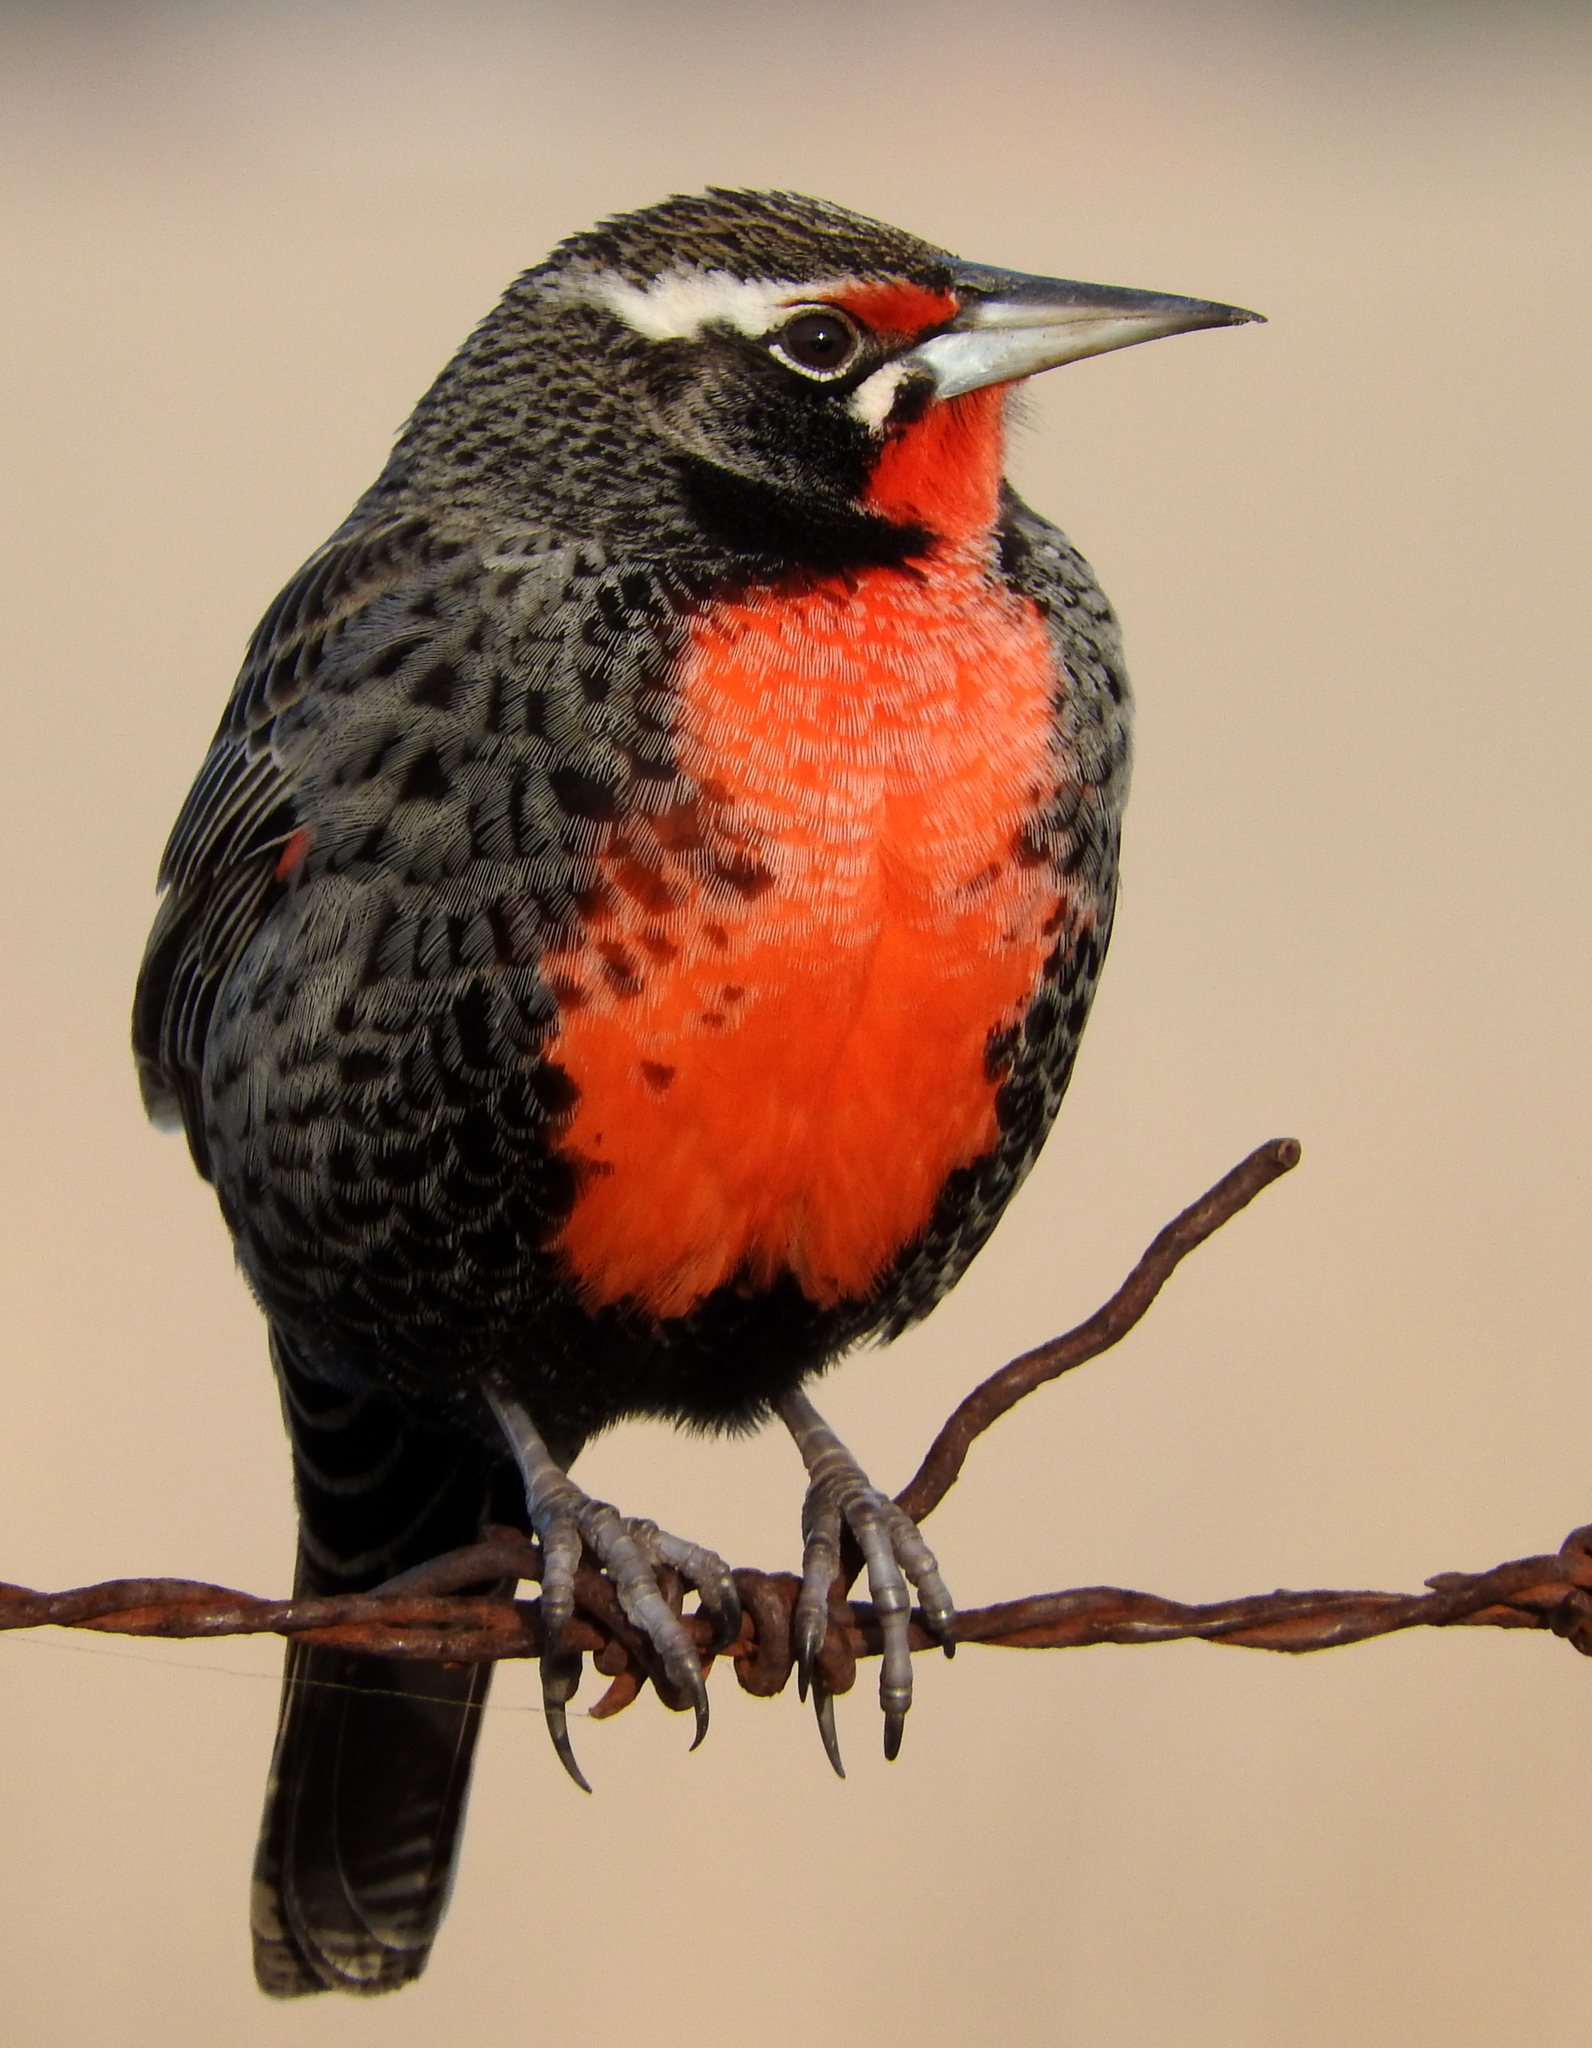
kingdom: Animalia
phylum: Chordata
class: Aves
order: Passeriformes
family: Icteridae
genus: Sturnella
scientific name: Sturnella loyca
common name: Long-tailed meadowlark
